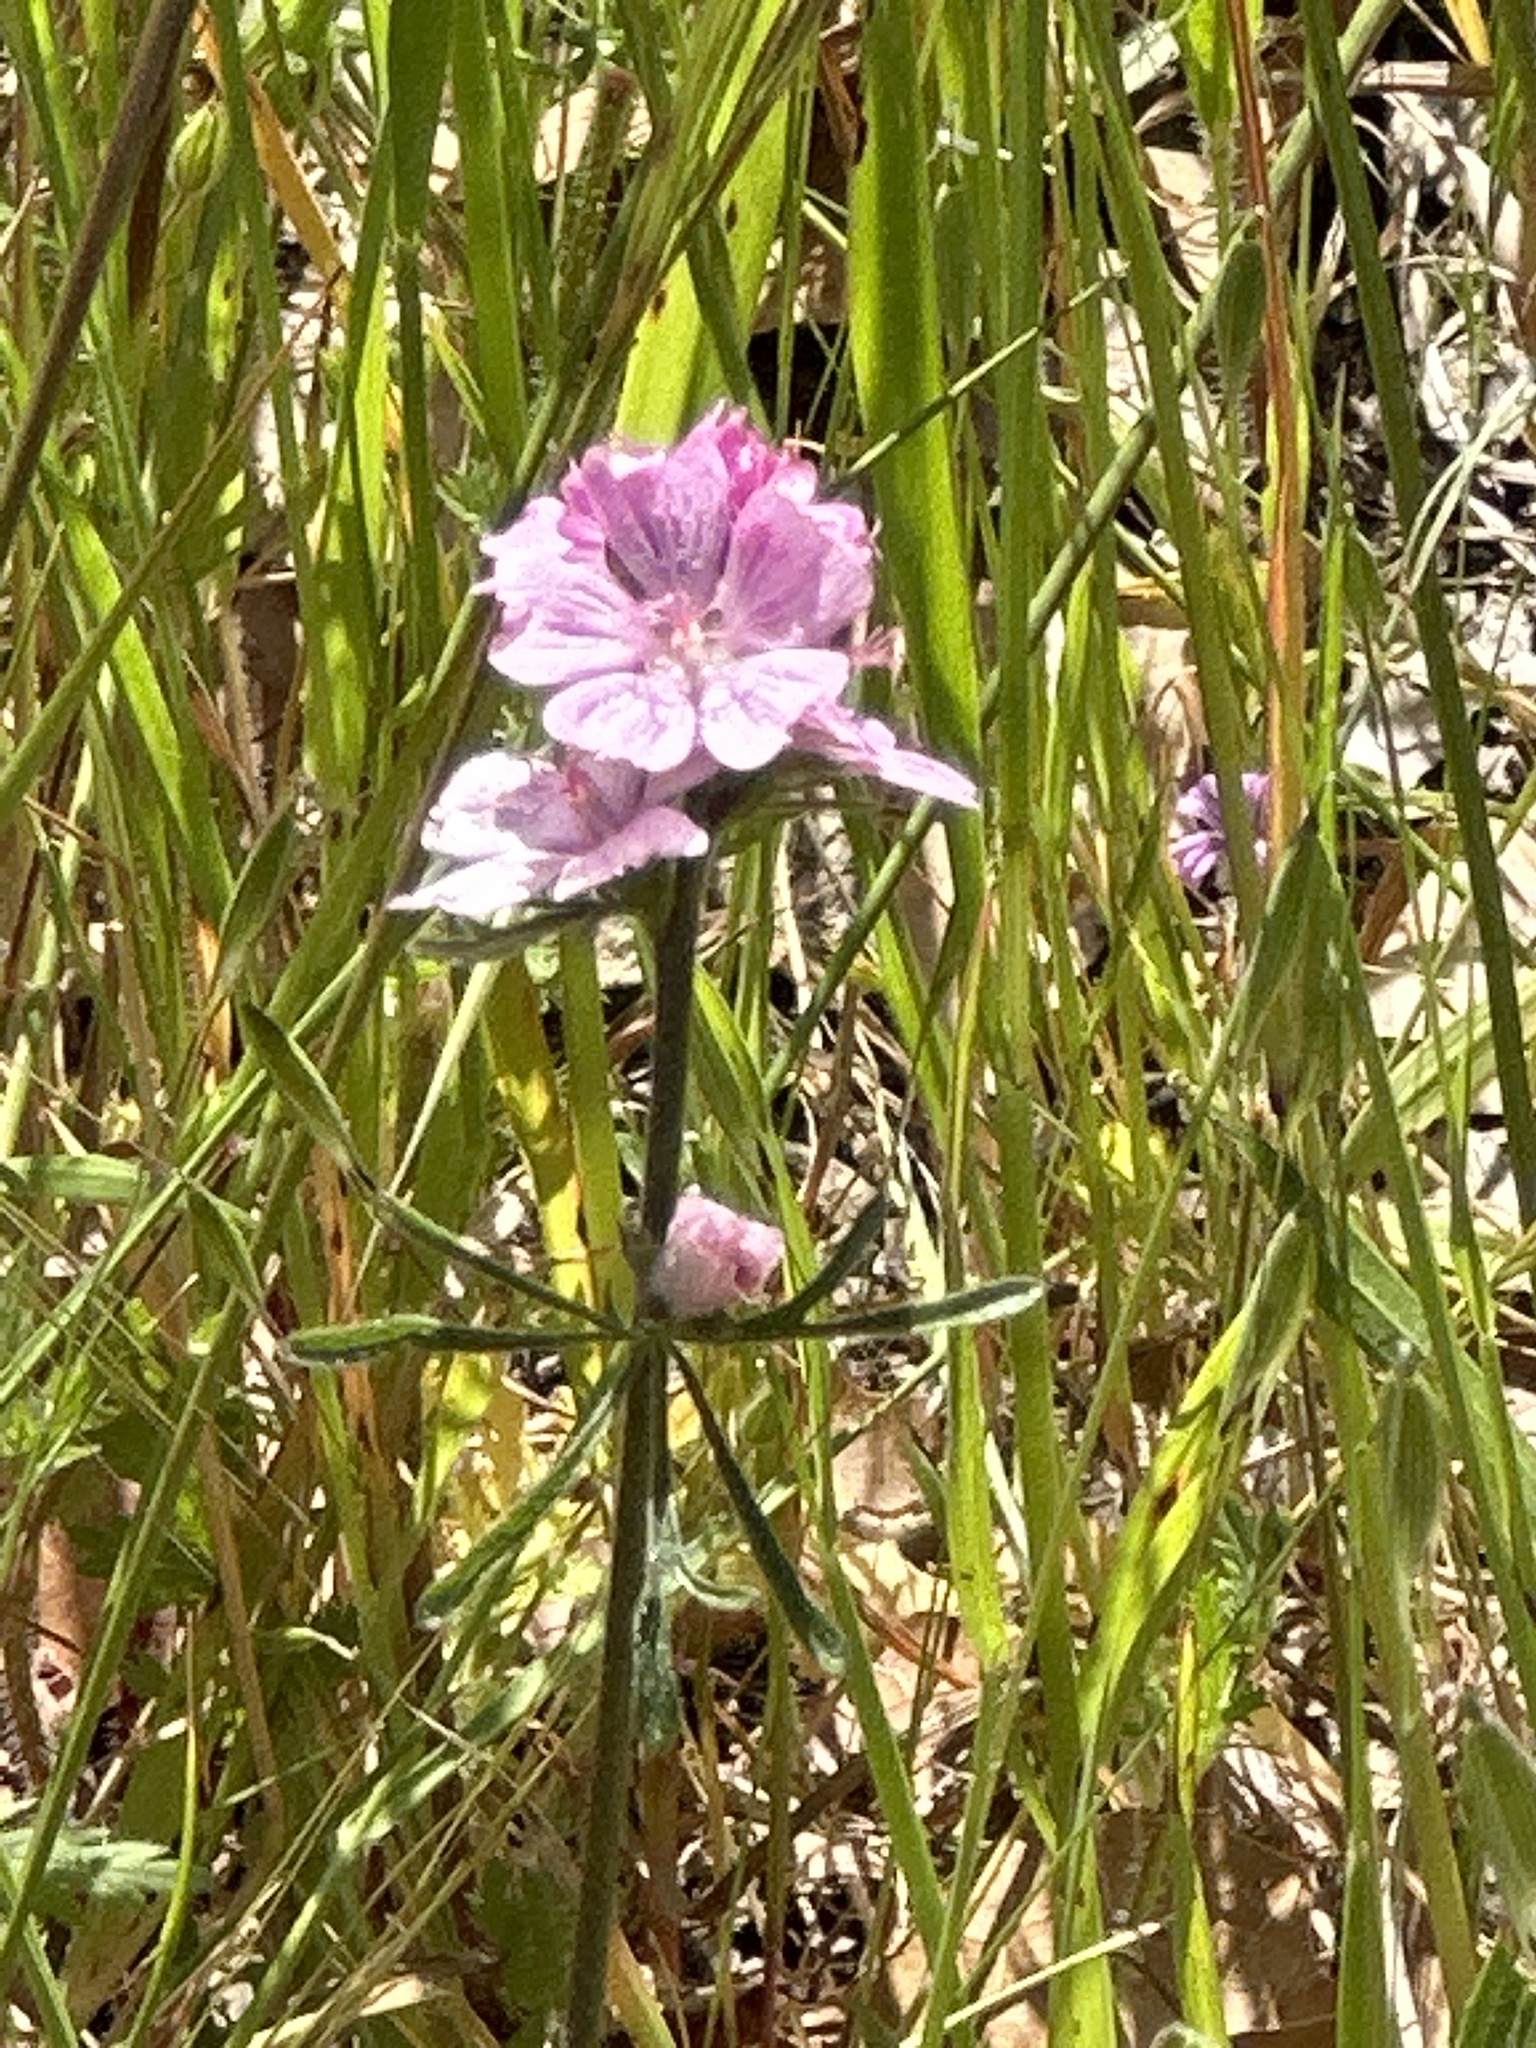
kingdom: Plantae
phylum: Tracheophyta
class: Magnoliopsida
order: Malvales
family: Malvaceae
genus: Sidalcea
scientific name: Sidalcea malviflora
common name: Greek mallow
